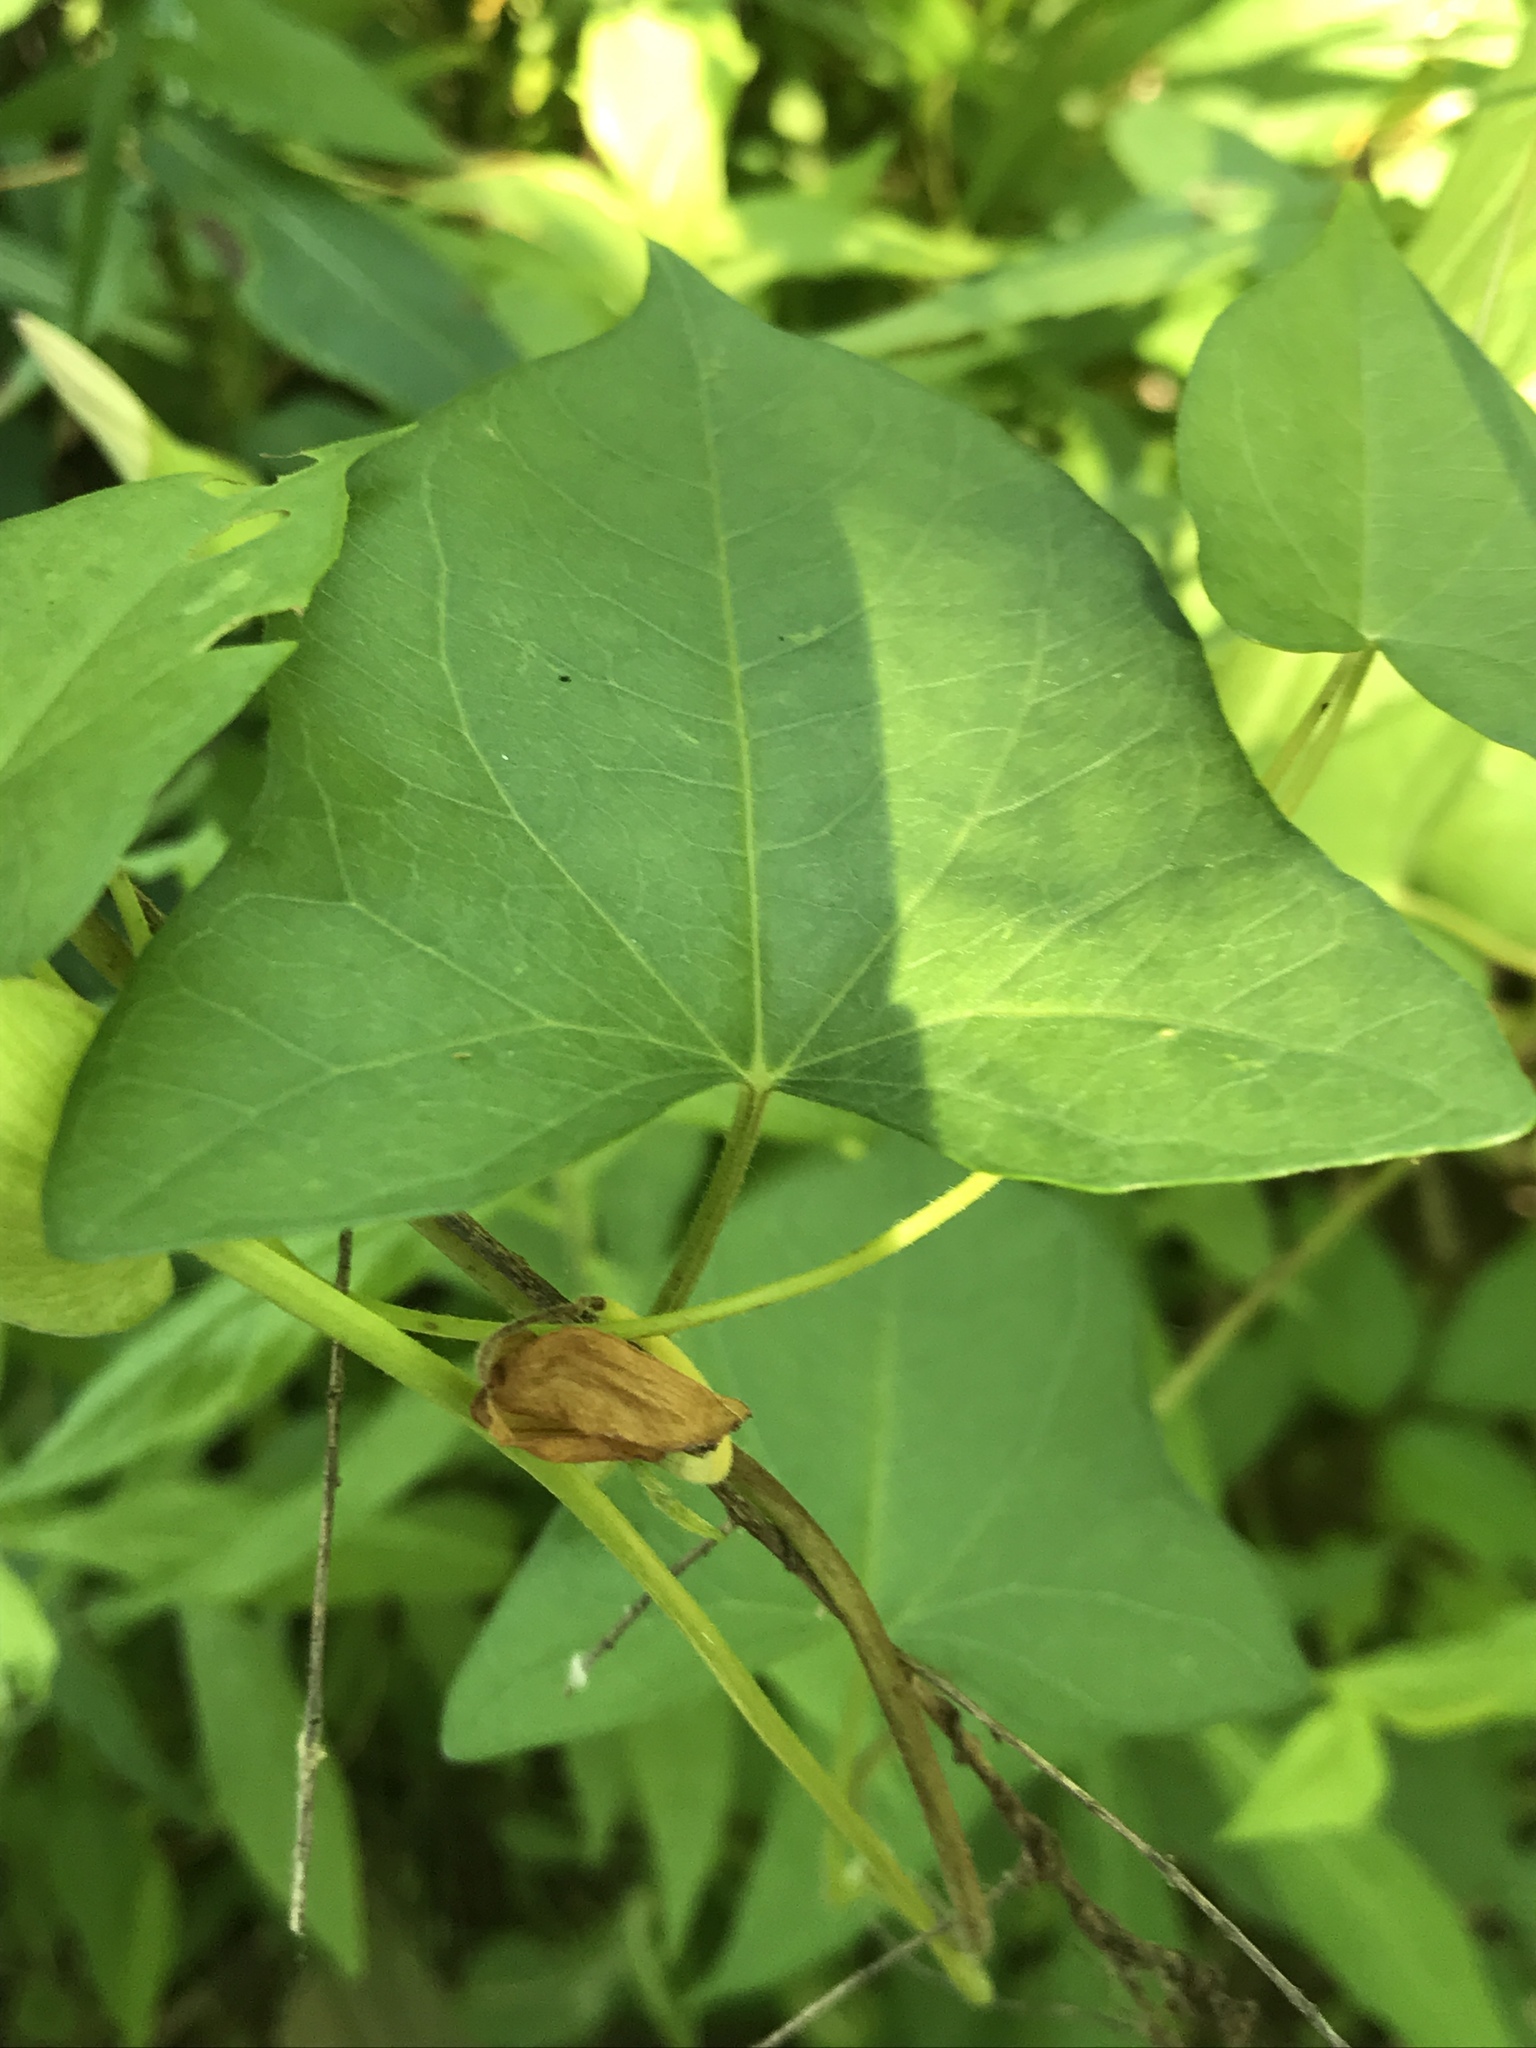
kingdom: Plantae
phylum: Tracheophyta
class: Magnoliopsida
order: Solanales
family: Convolvulaceae
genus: Calystegia
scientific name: Calystegia sepium
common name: Hedge bindweed
